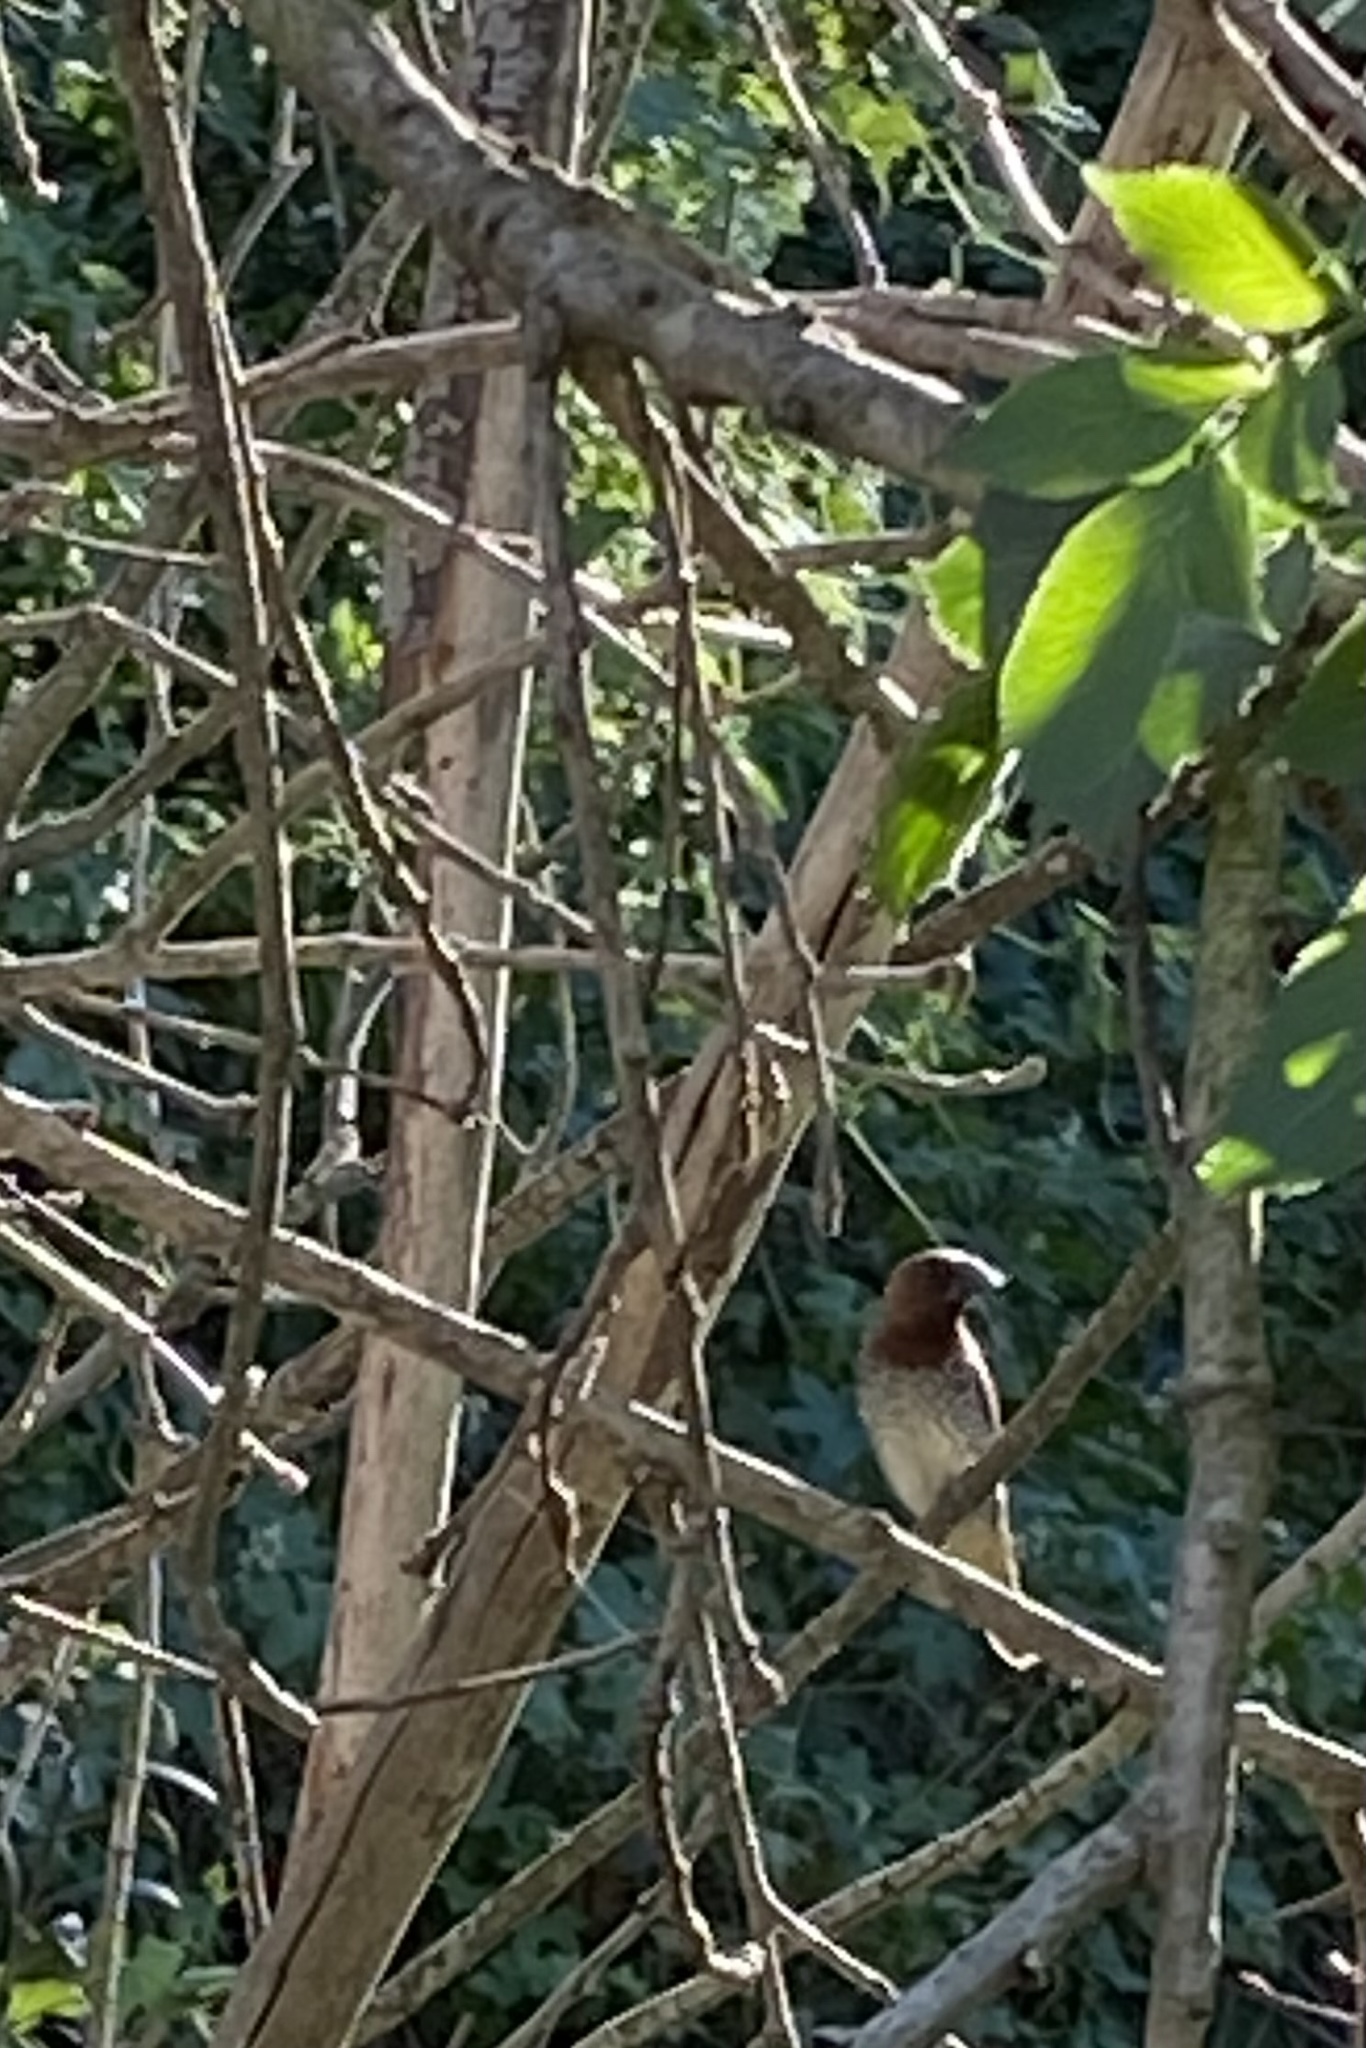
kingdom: Animalia
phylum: Chordata
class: Aves
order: Passeriformes
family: Estrildidae
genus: Lonchura
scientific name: Lonchura punctulata
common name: Scaly-breasted munia
